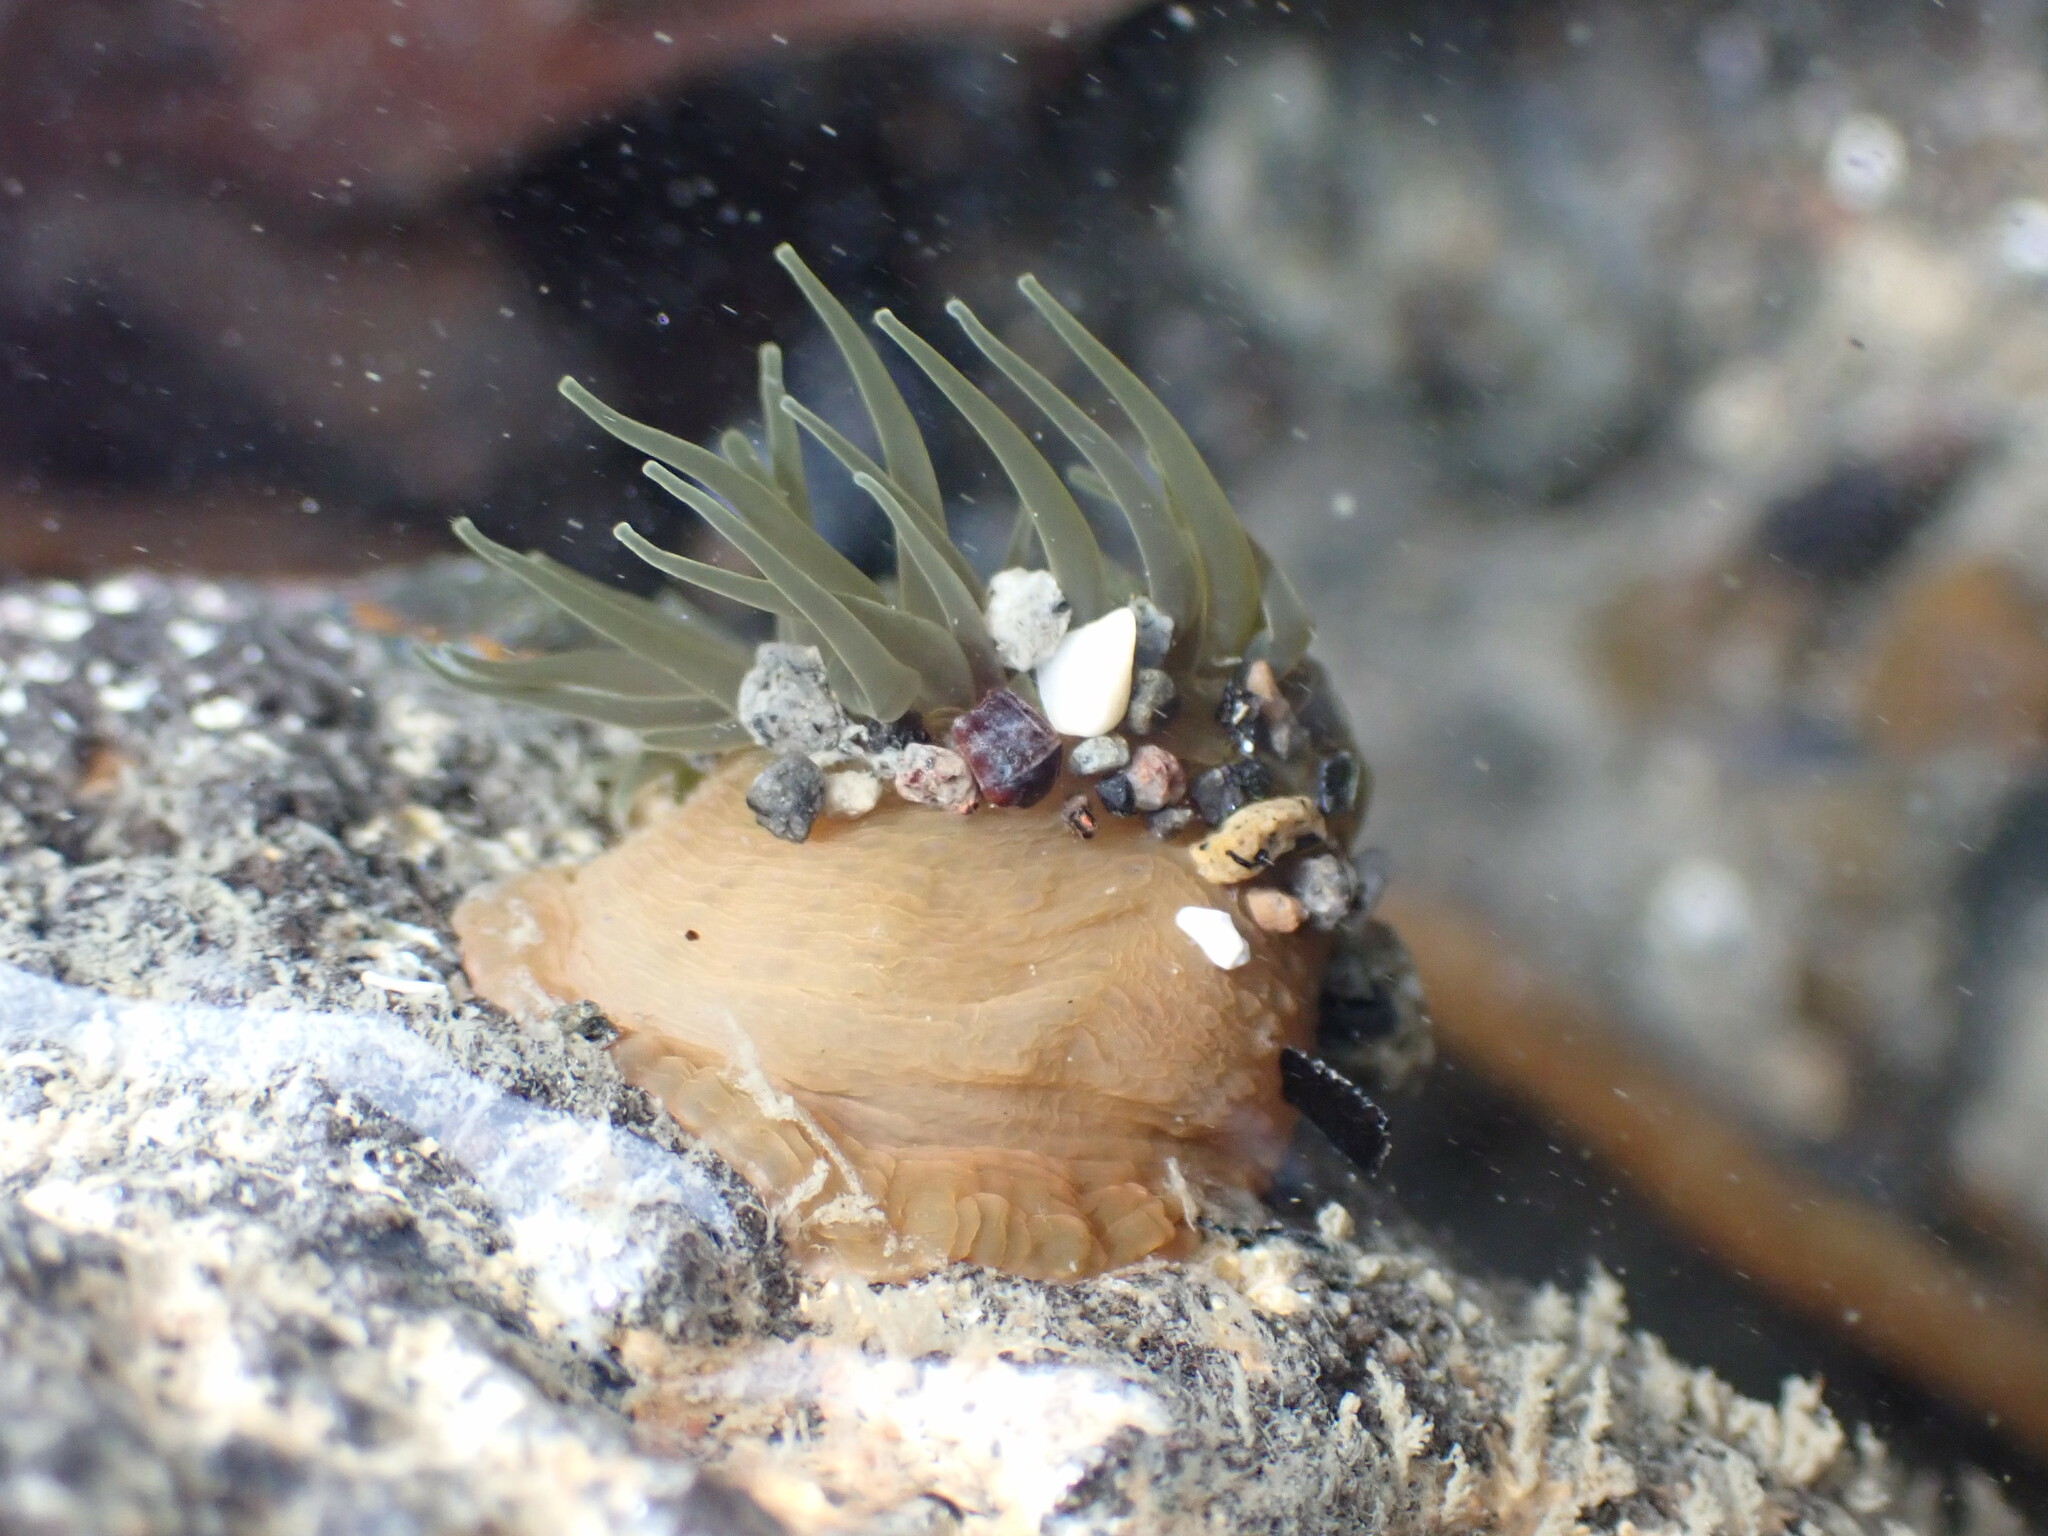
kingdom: Animalia
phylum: Cnidaria
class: Anthozoa
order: Actiniaria
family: Actiniidae
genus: Isactinia
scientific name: Isactinia olivacea
